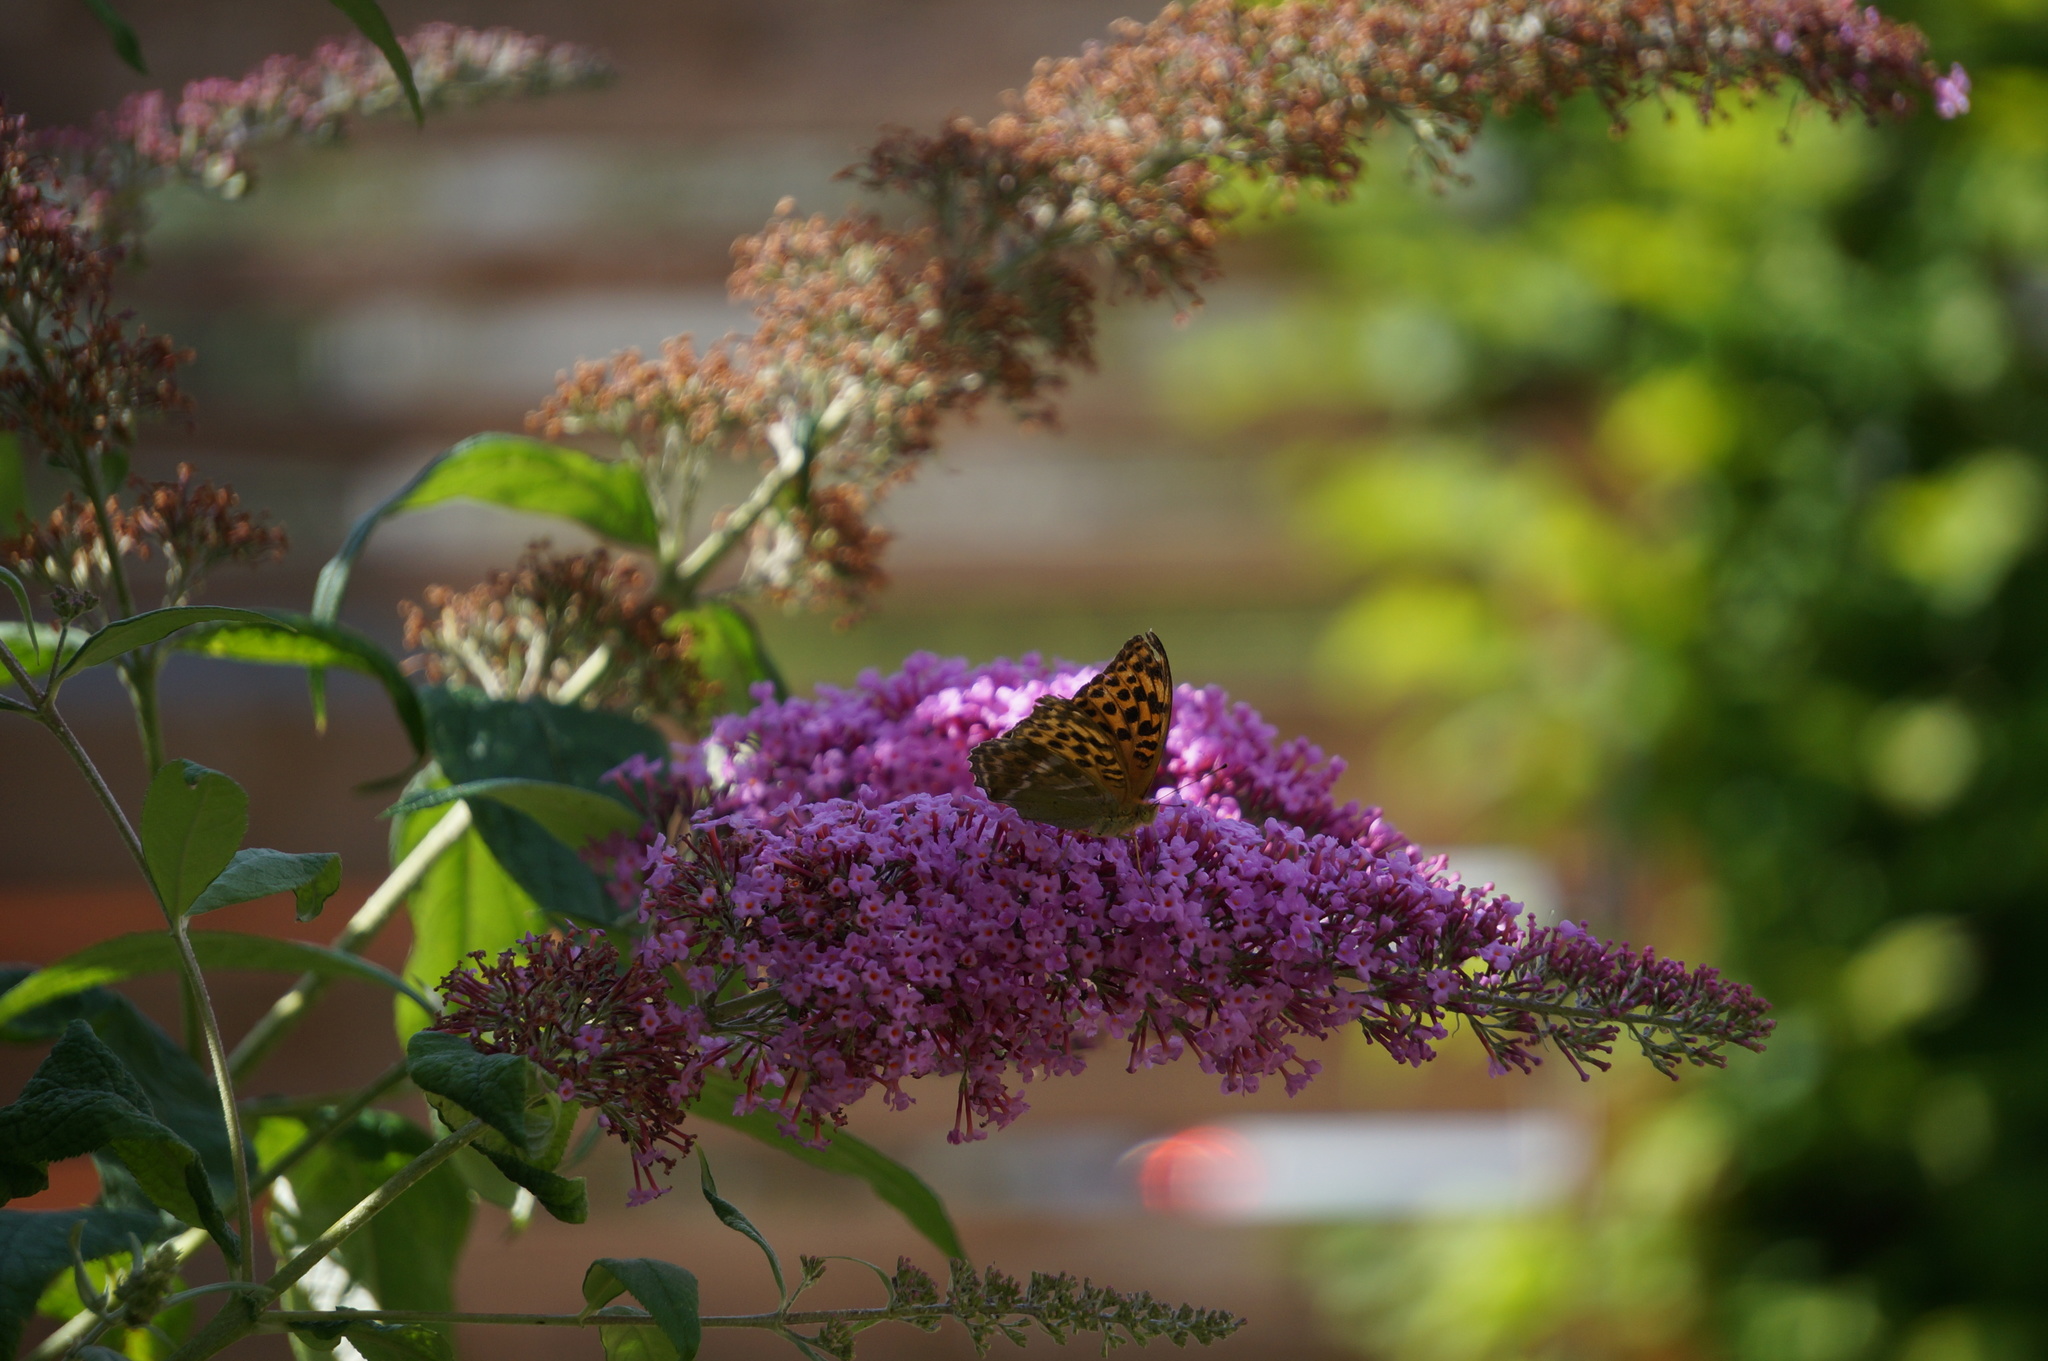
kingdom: Animalia
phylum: Arthropoda
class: Insecta
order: Lepidoptera
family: Nymphalidae
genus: Argynnis
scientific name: Argynnis paphia
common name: Silver-washed fritillary
